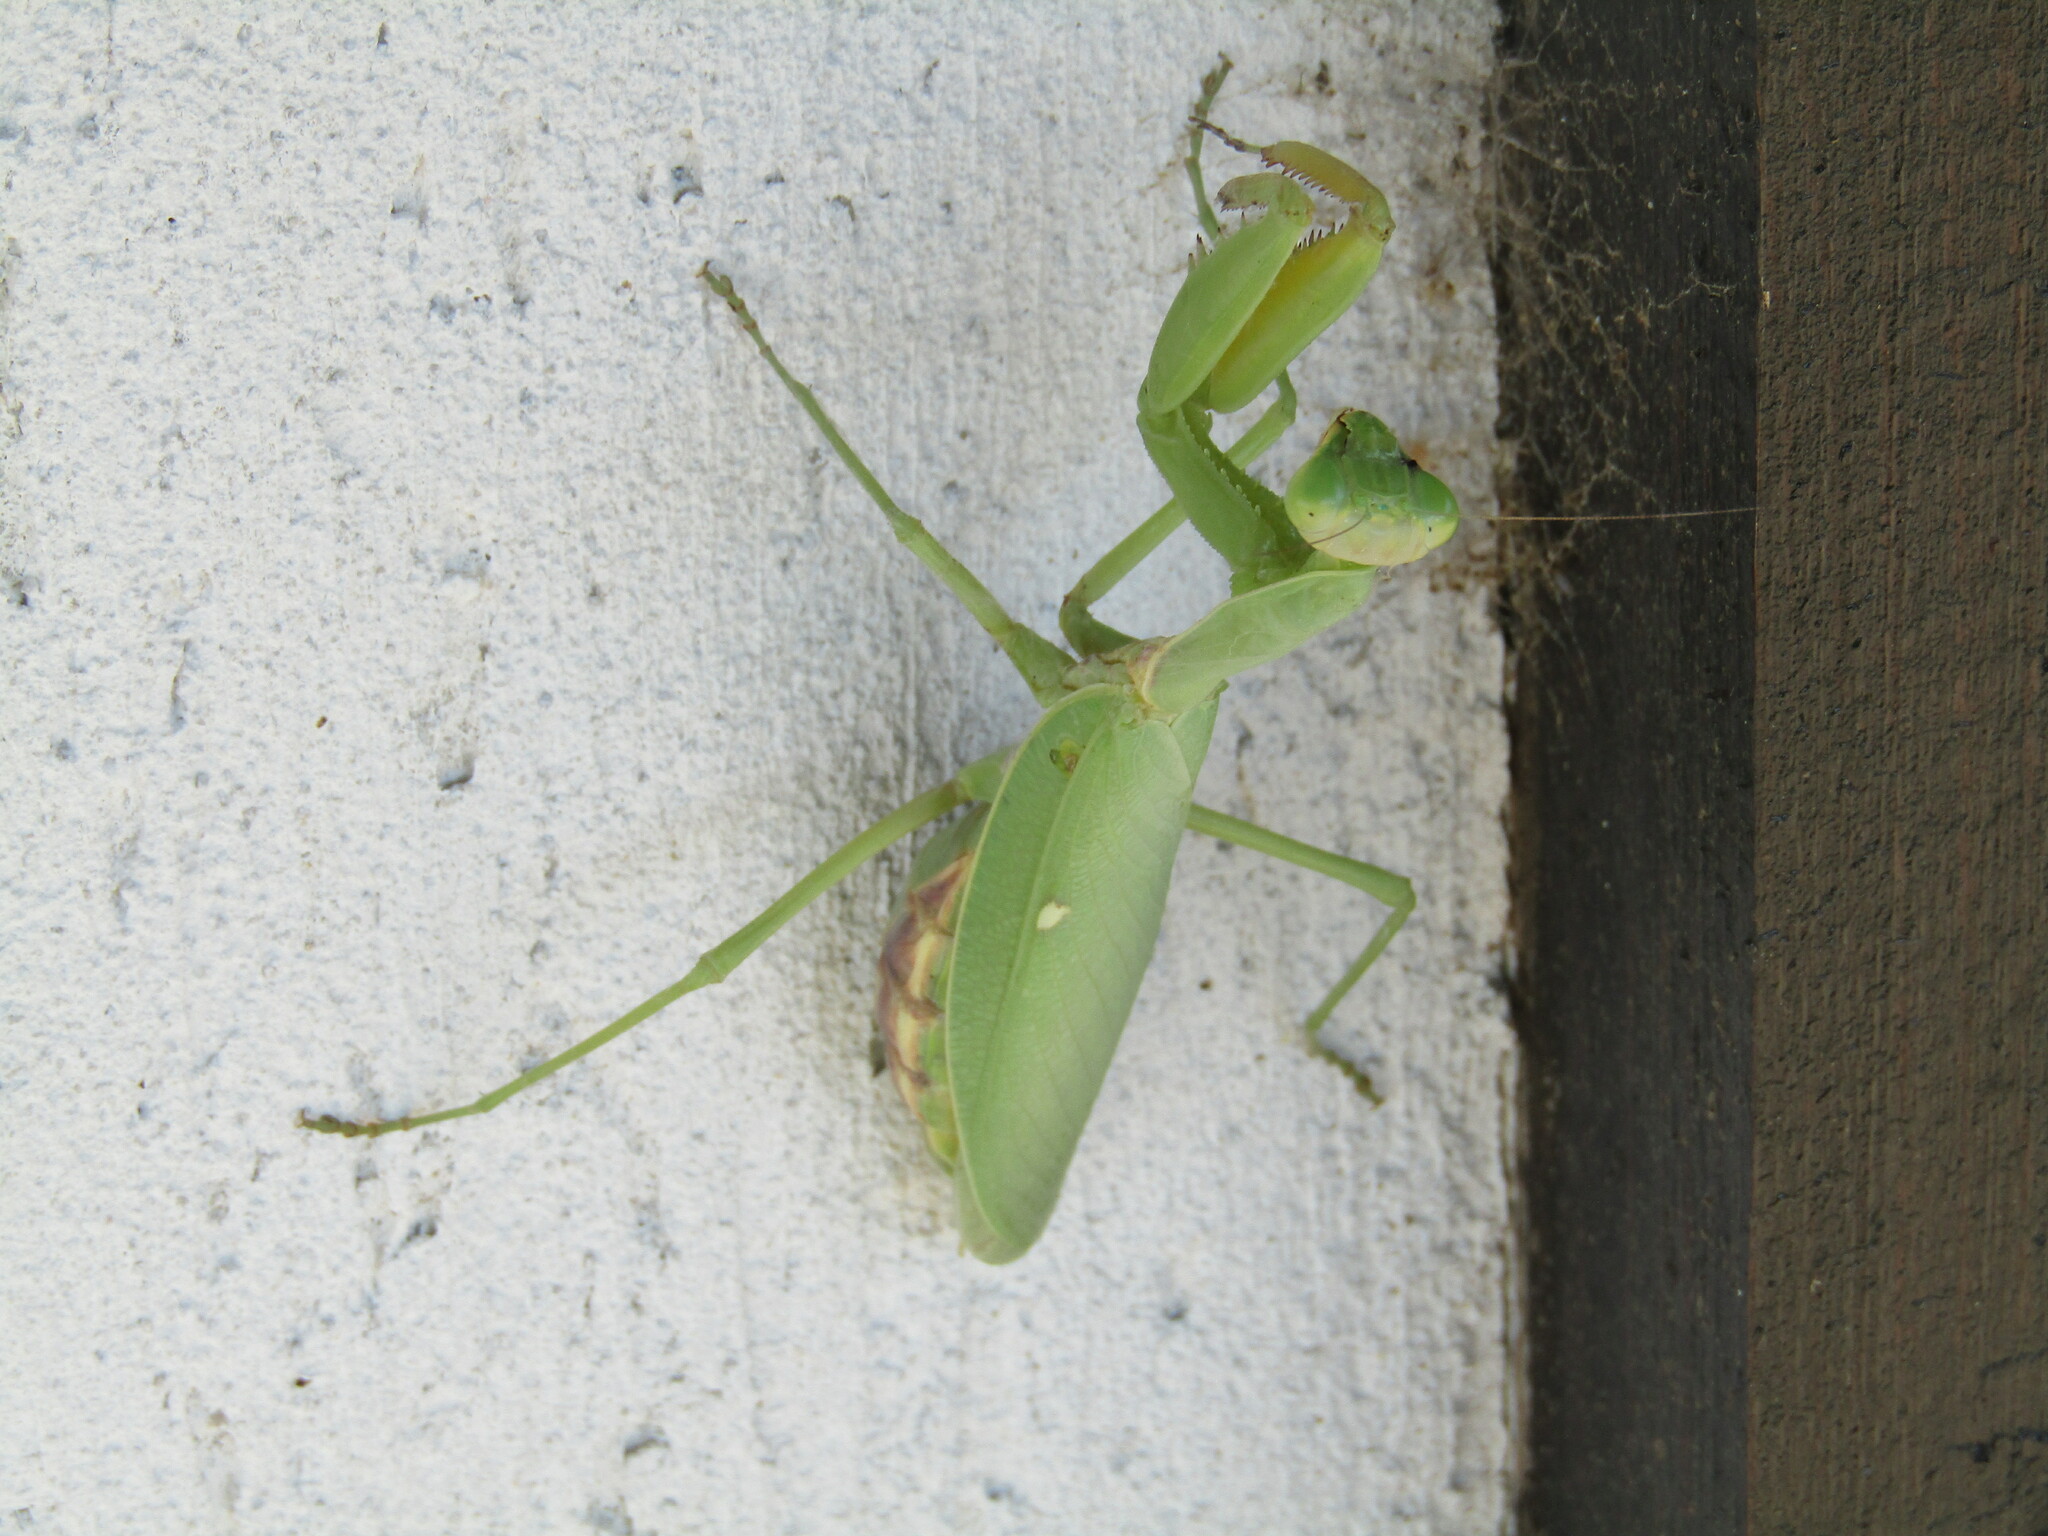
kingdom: Animalia
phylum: Arthropoda
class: Insecta
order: Mantodea
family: Mantidae
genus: Hierodula
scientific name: Hierodula transcaucasica
